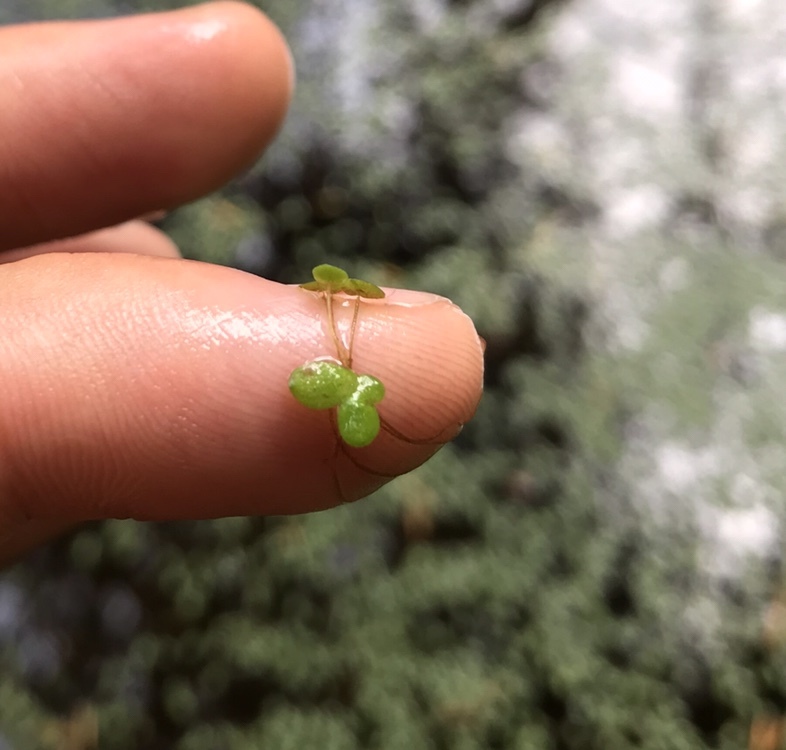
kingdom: Plantae
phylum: Tracheophyta
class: Liliopsida
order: Alismatales
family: Araceae
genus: Lemna
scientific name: Lemna minor
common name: Common duckweed
